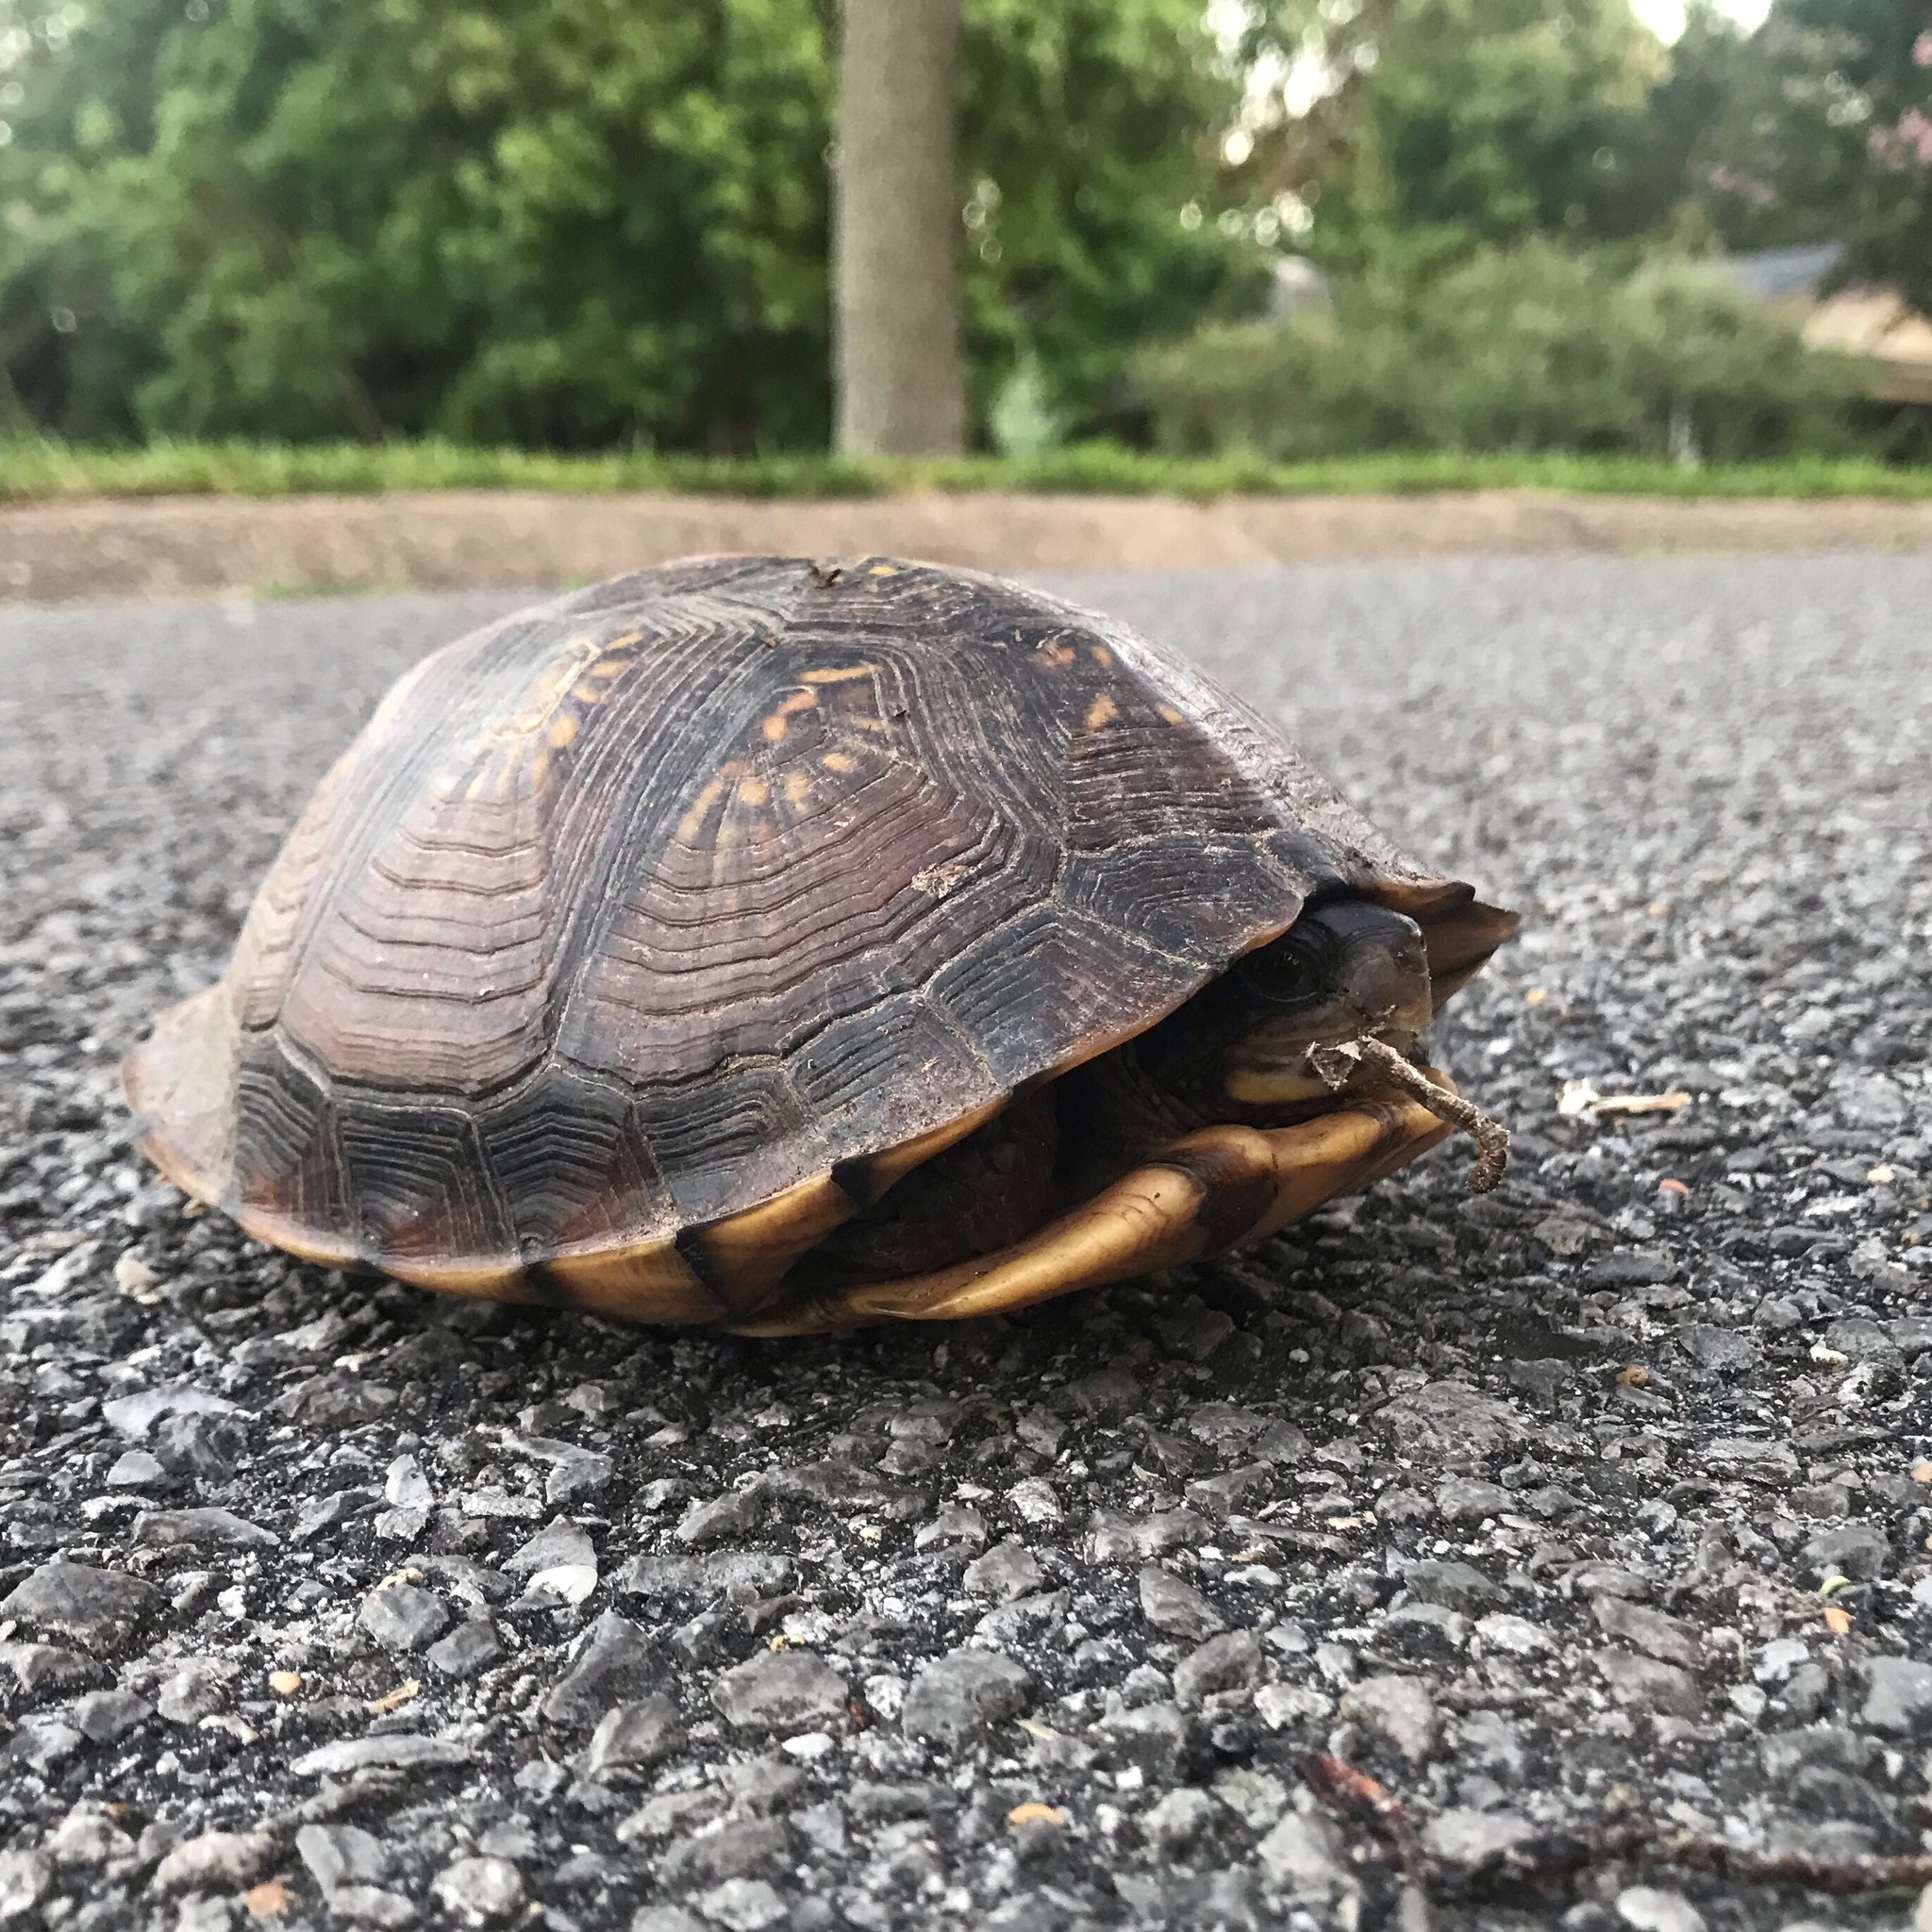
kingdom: Animalia
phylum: Chordata
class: Testudines
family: Emydidae
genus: Terrapene
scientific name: Terrapene carolina
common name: Common box turtle
